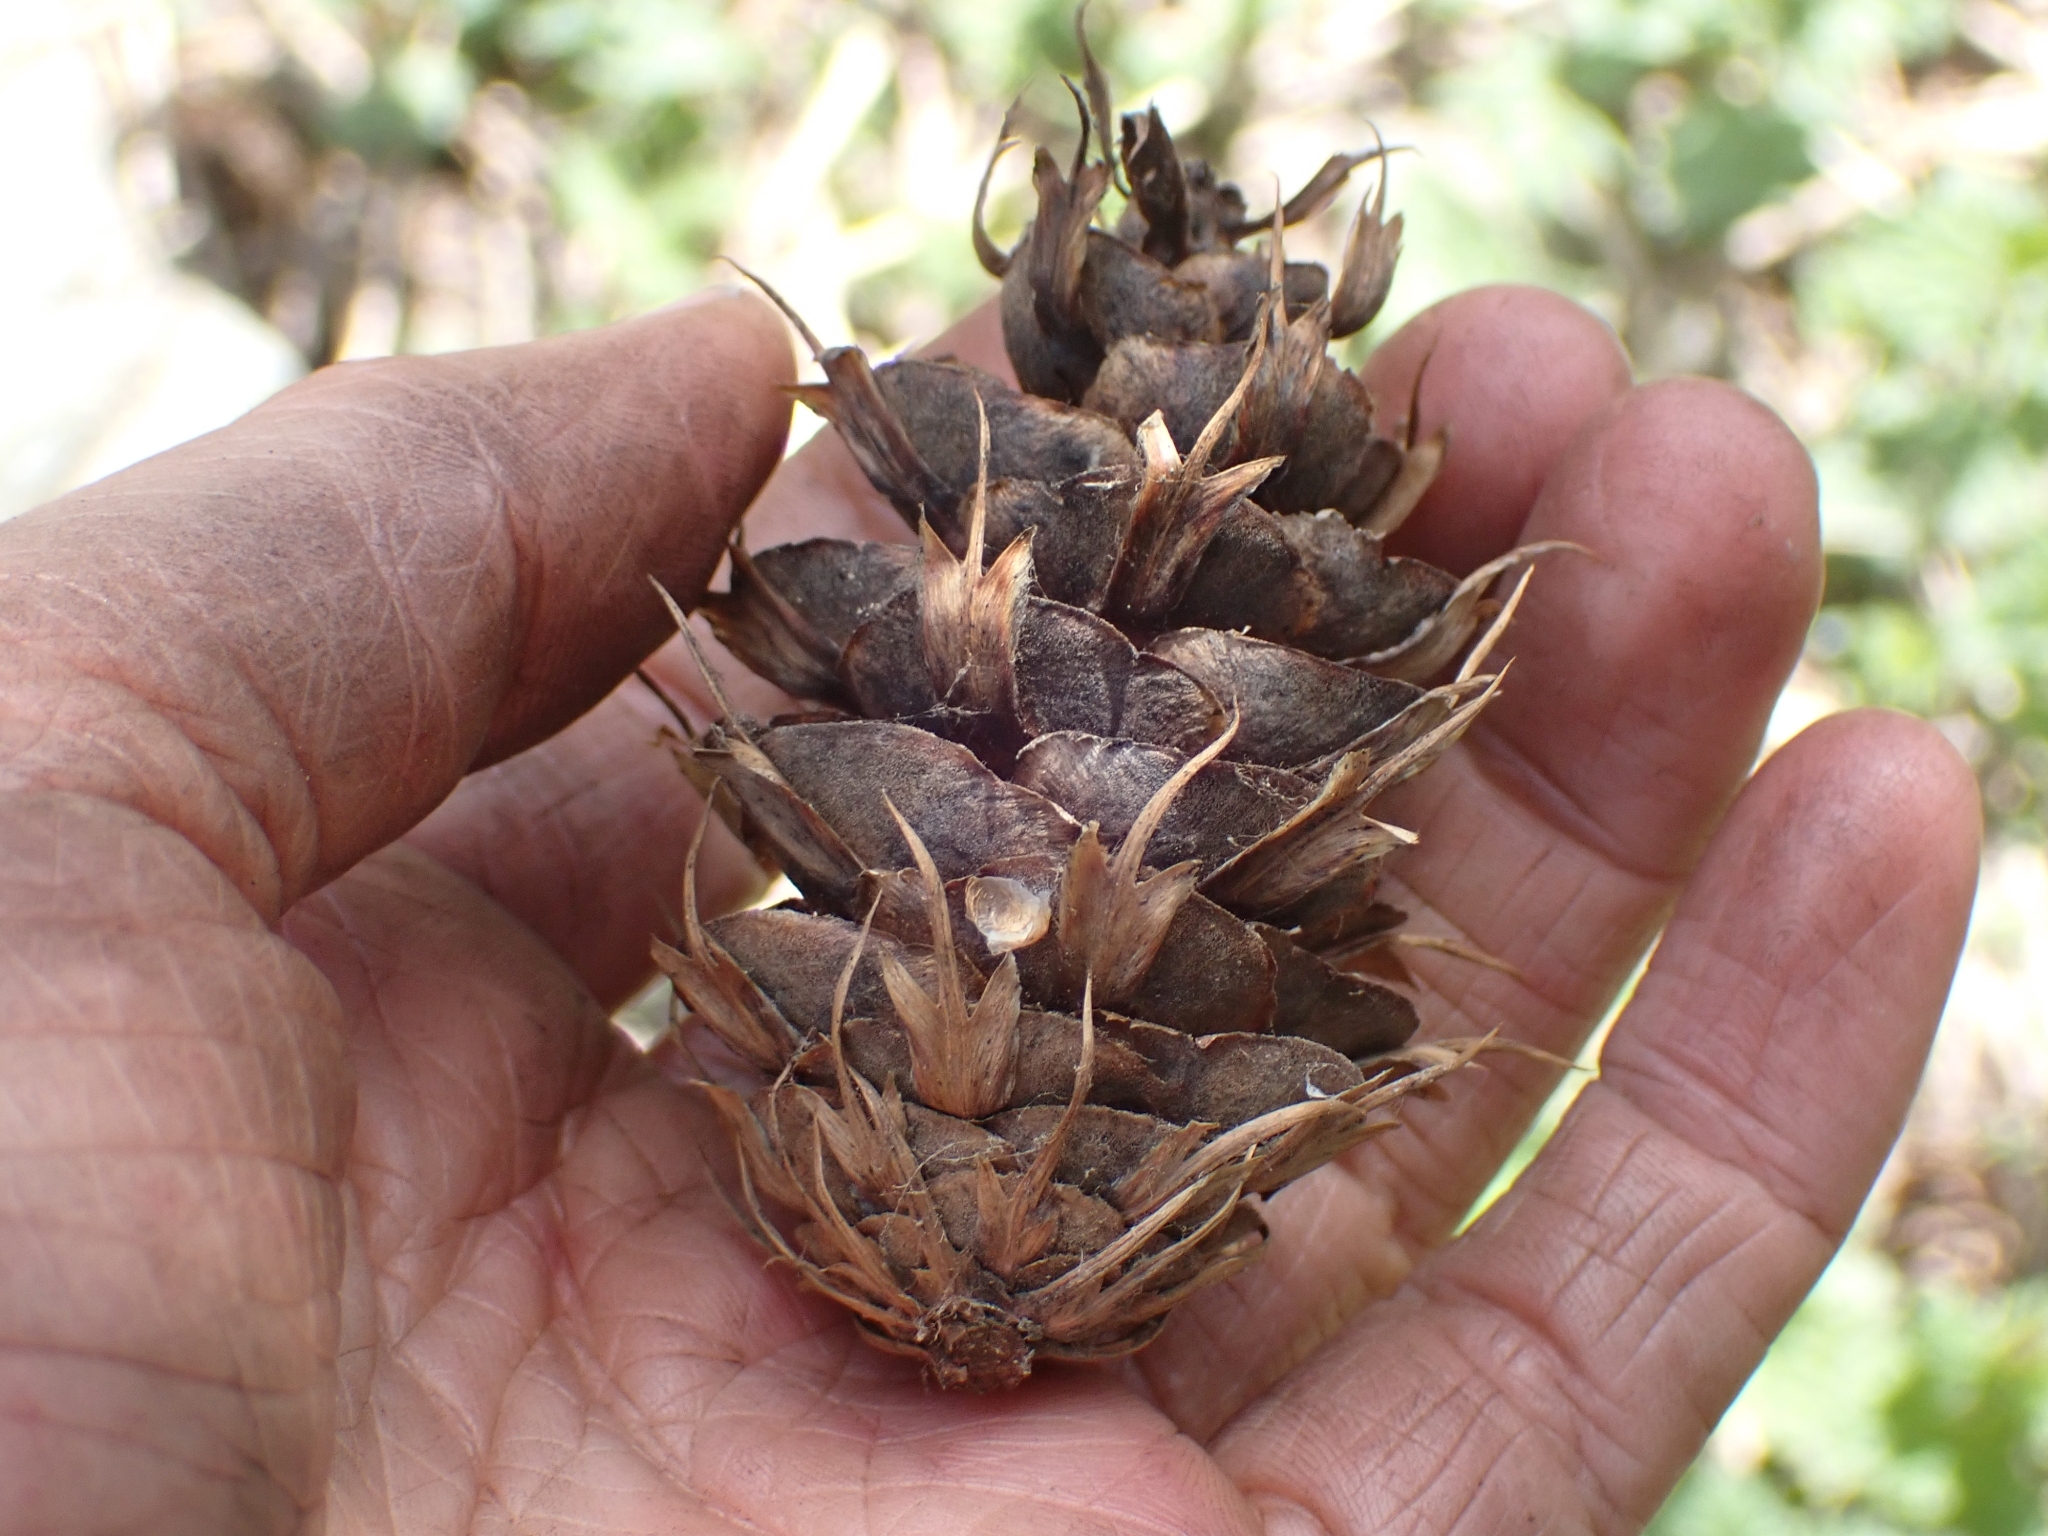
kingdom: Plantae
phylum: Tracheophyta
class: Pinopsida
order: Pinales
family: Pinaceae
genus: Pseudotsuga
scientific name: Pseudotsuga menziesii
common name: Douglas fir
